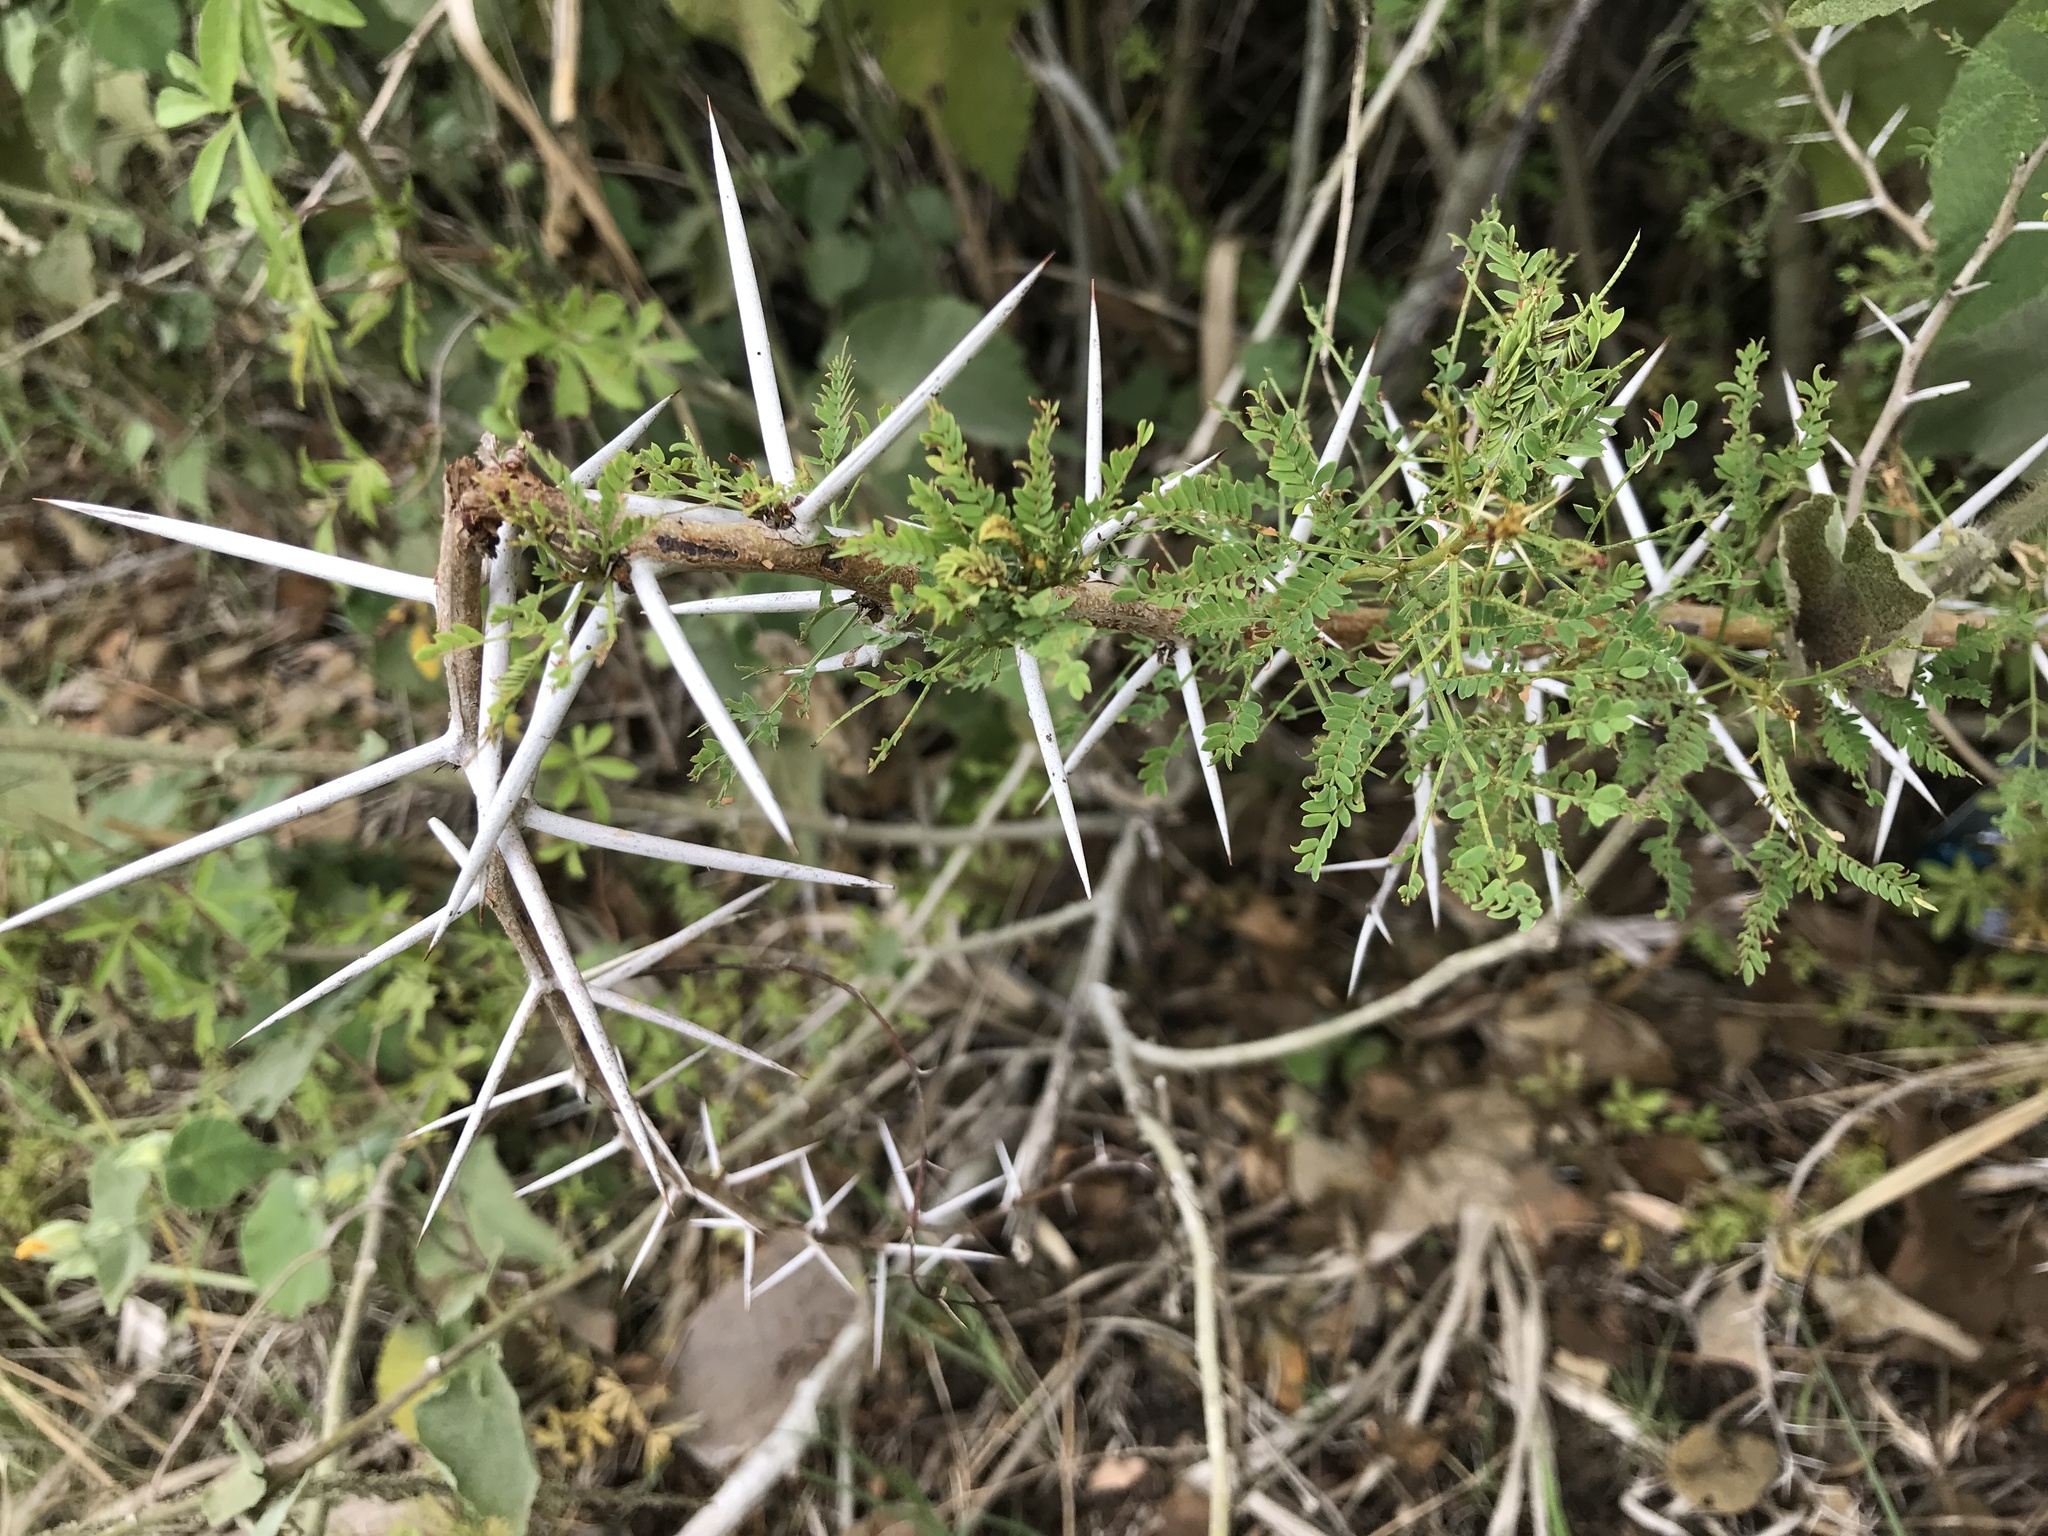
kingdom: Plantae
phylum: Tracheophyta
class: Magnoliopsida
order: Fabales
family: Fabaceae
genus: Vachellia
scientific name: Vachellia karroo
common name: Sweet thorn
